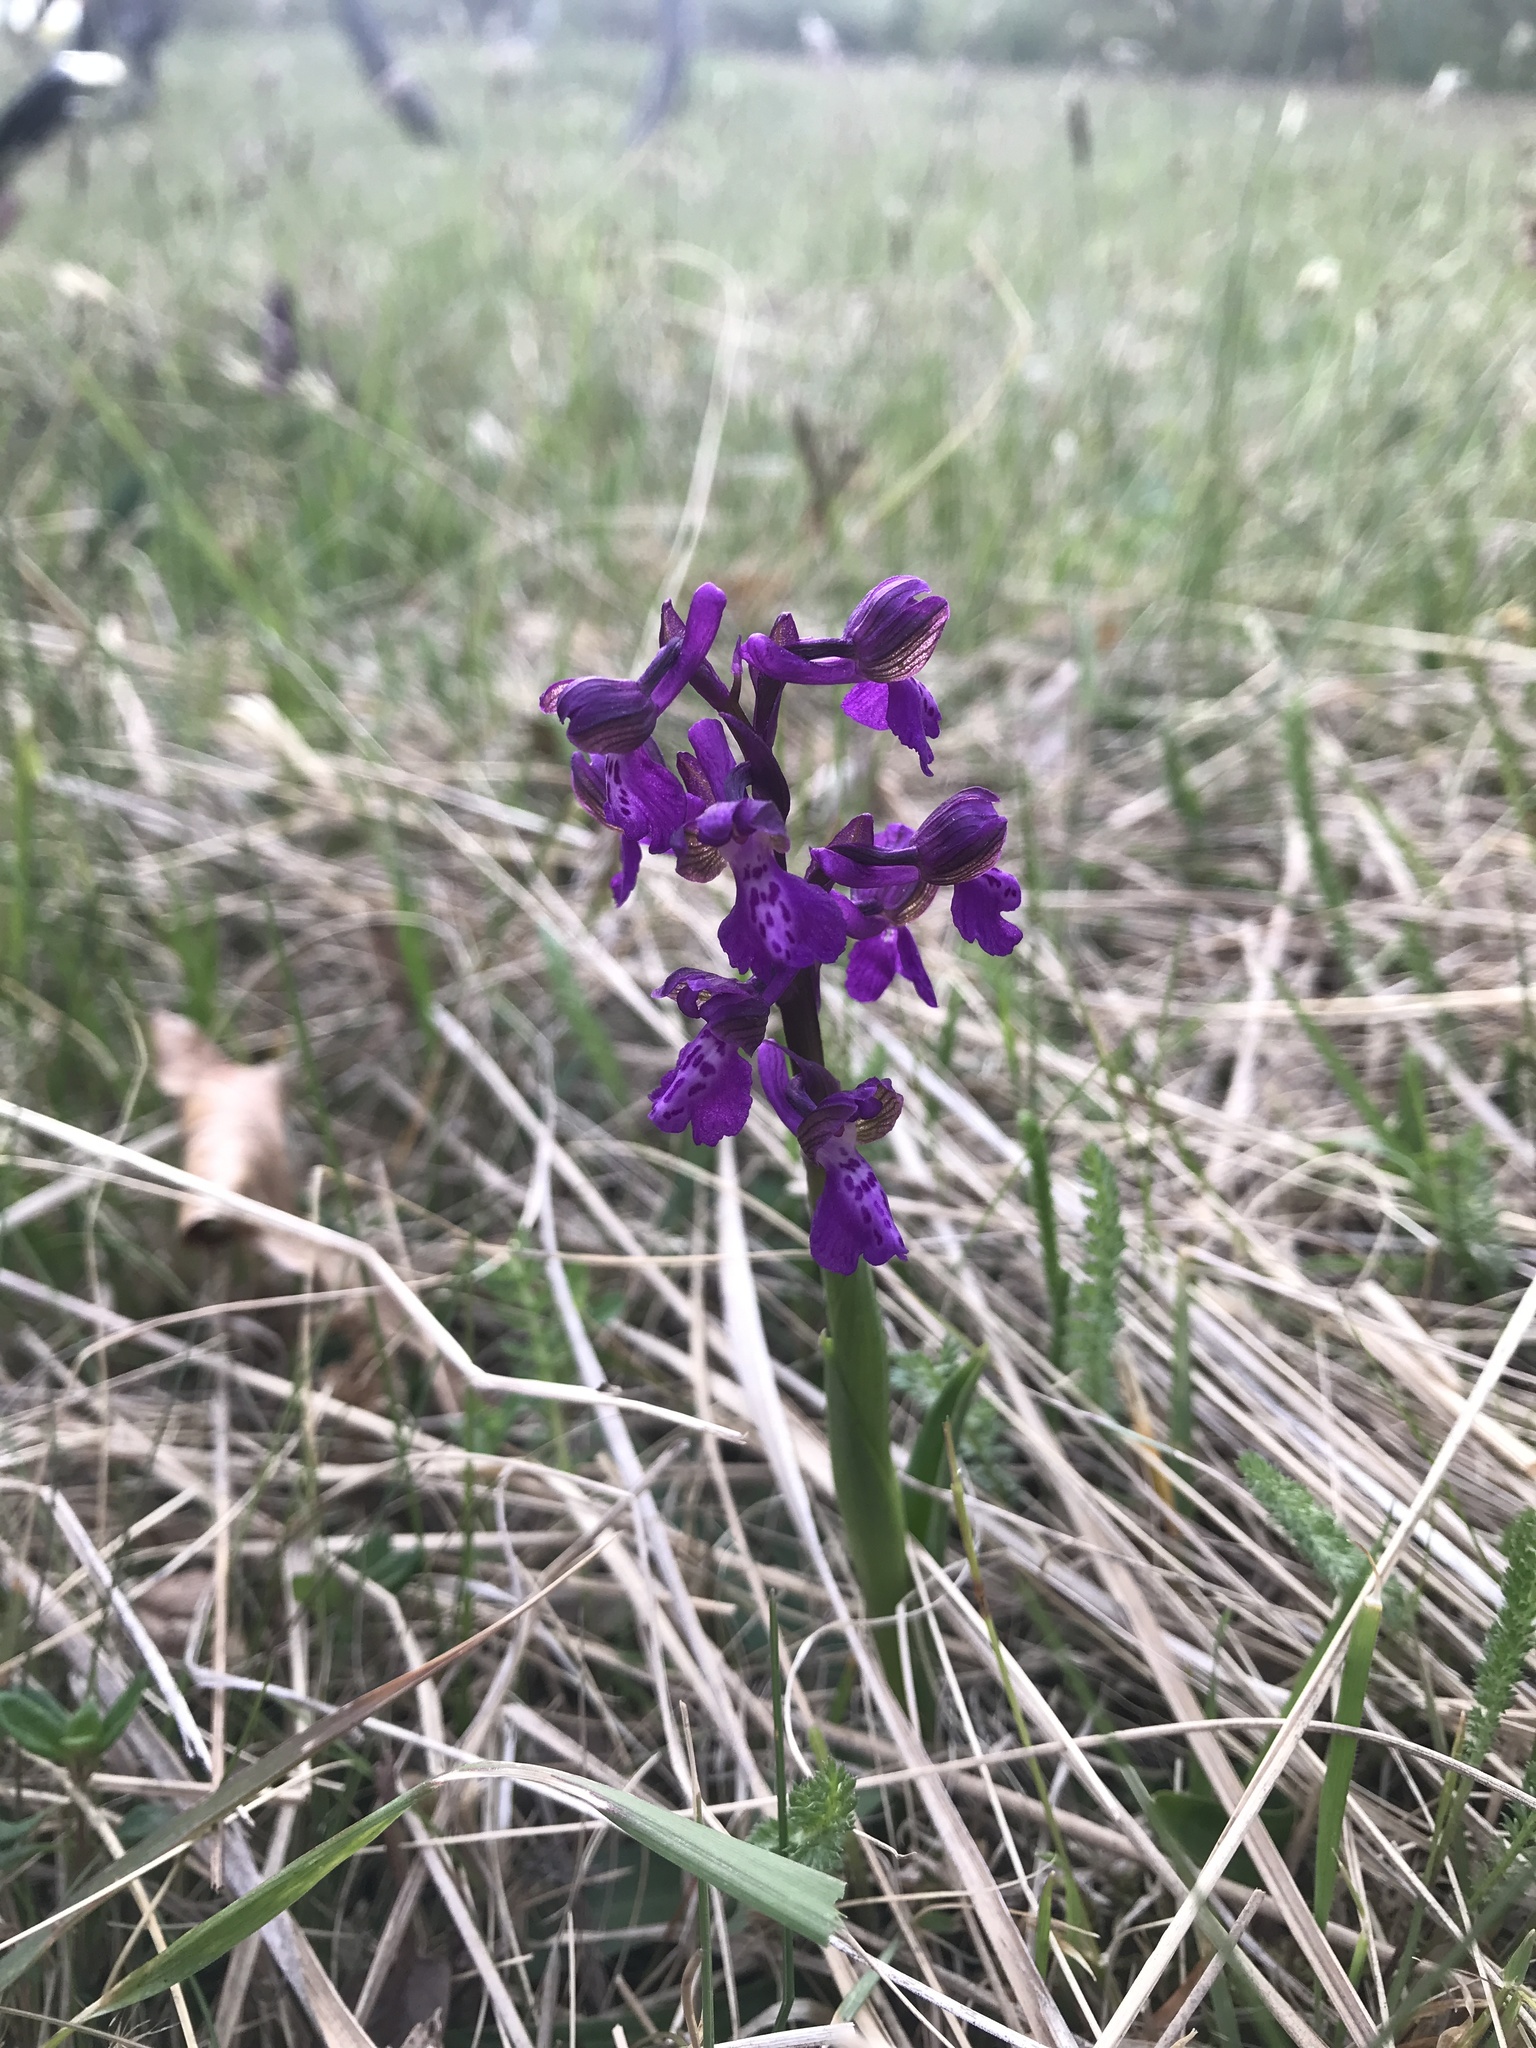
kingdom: Plantae
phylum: Tracheophyta
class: Liliopsida
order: Asparagales
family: Orchidaceae
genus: Anacamptis
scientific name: Anacamptis morio
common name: Green-winged orchid
